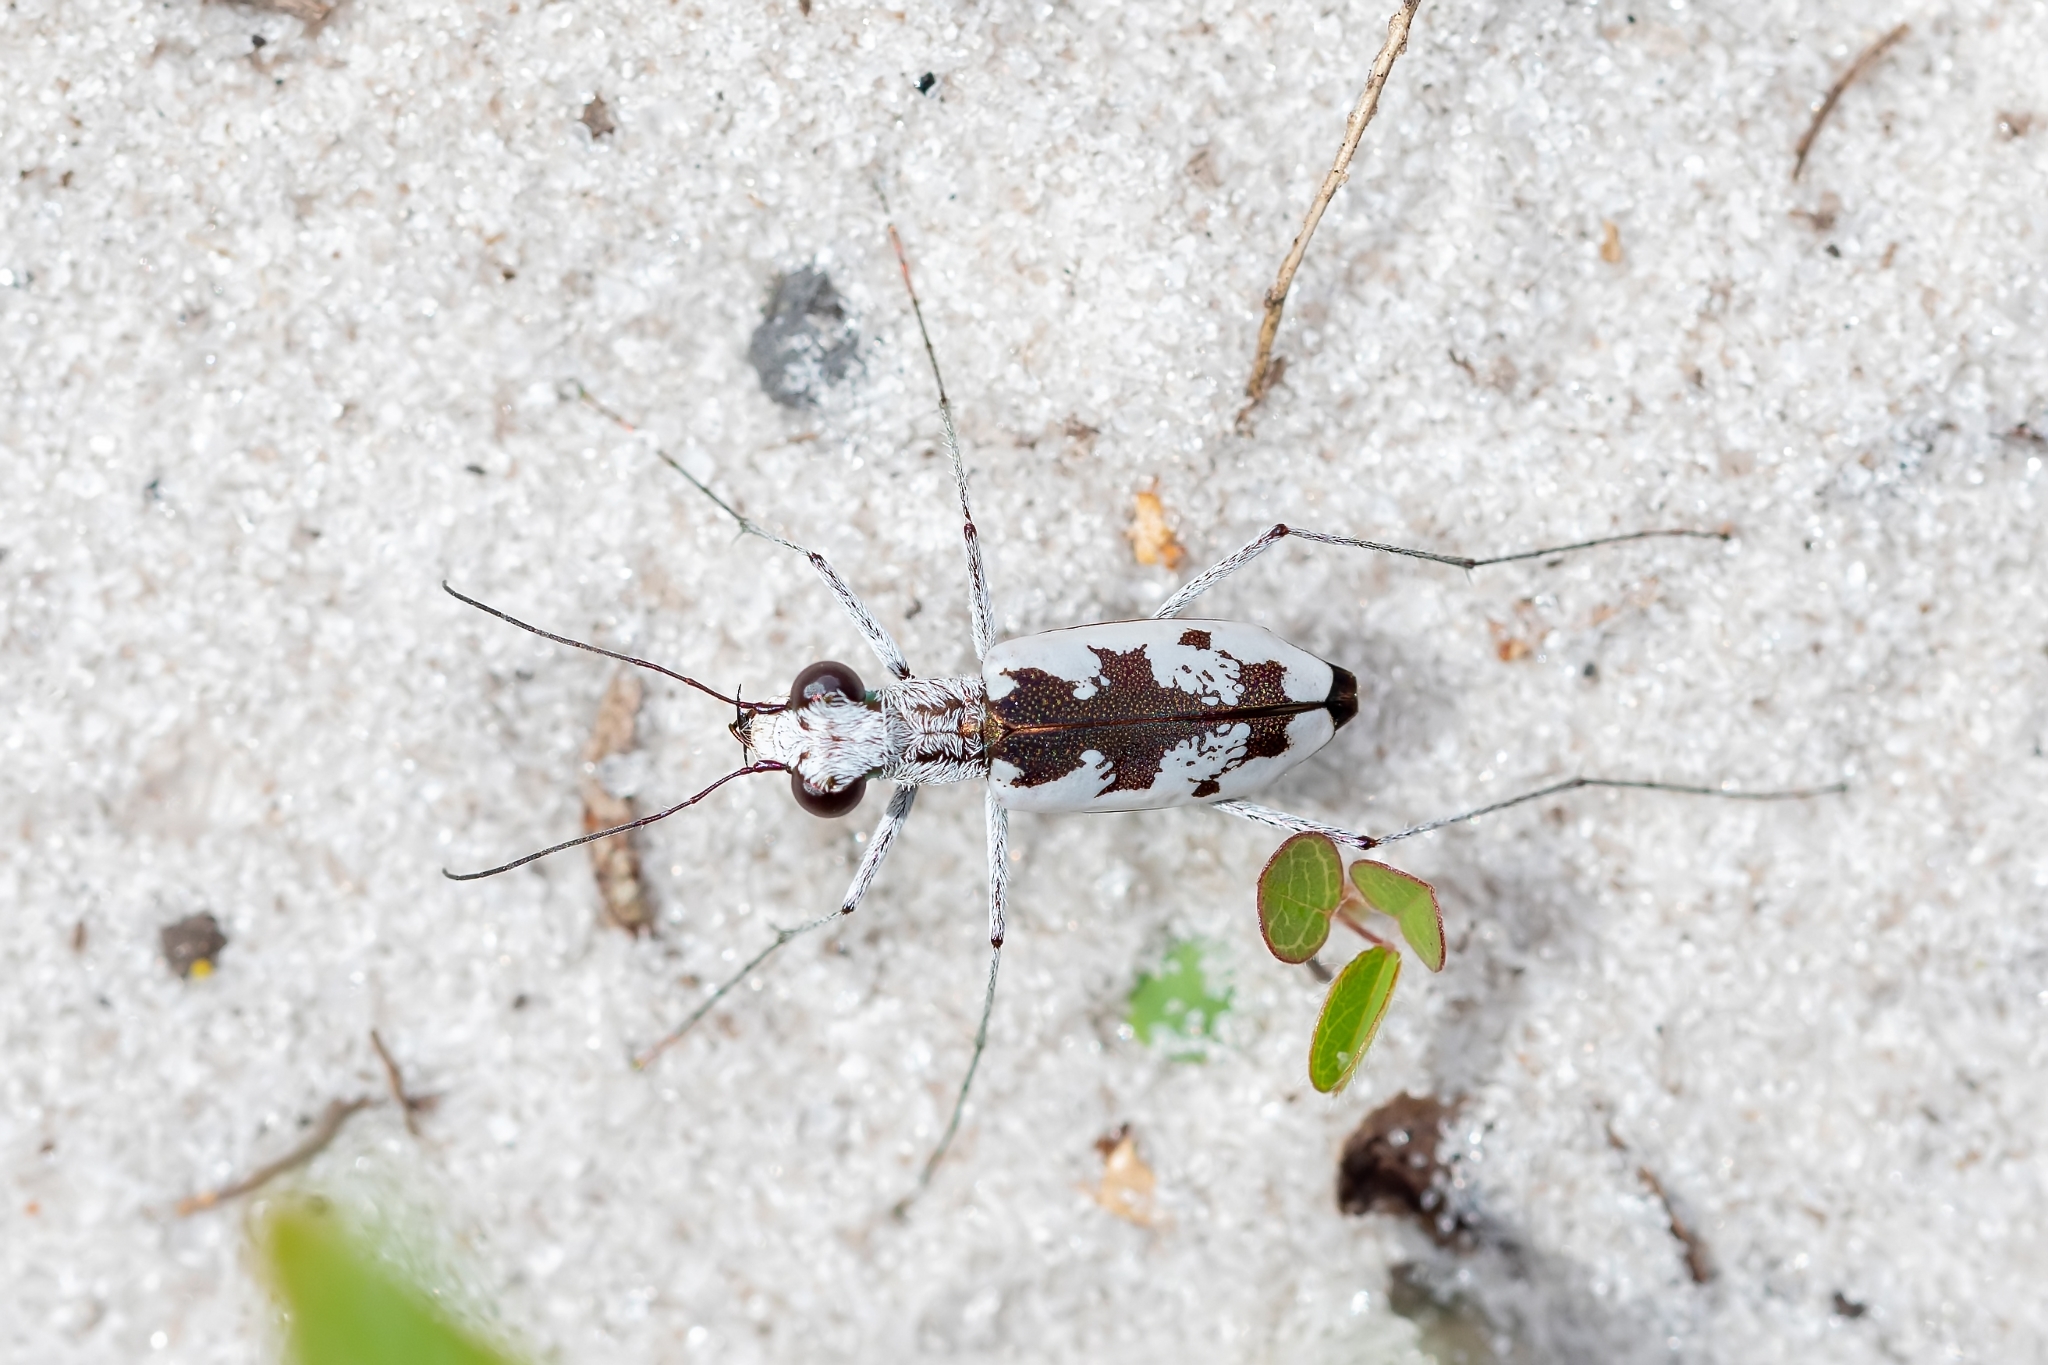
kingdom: Animalia
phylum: Arthropoda
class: Insecta
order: Coleoptera
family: Carabidae
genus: Ellipsoptera
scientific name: Ellipsoptera hirtilabris
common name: Moustached tiger beetle
